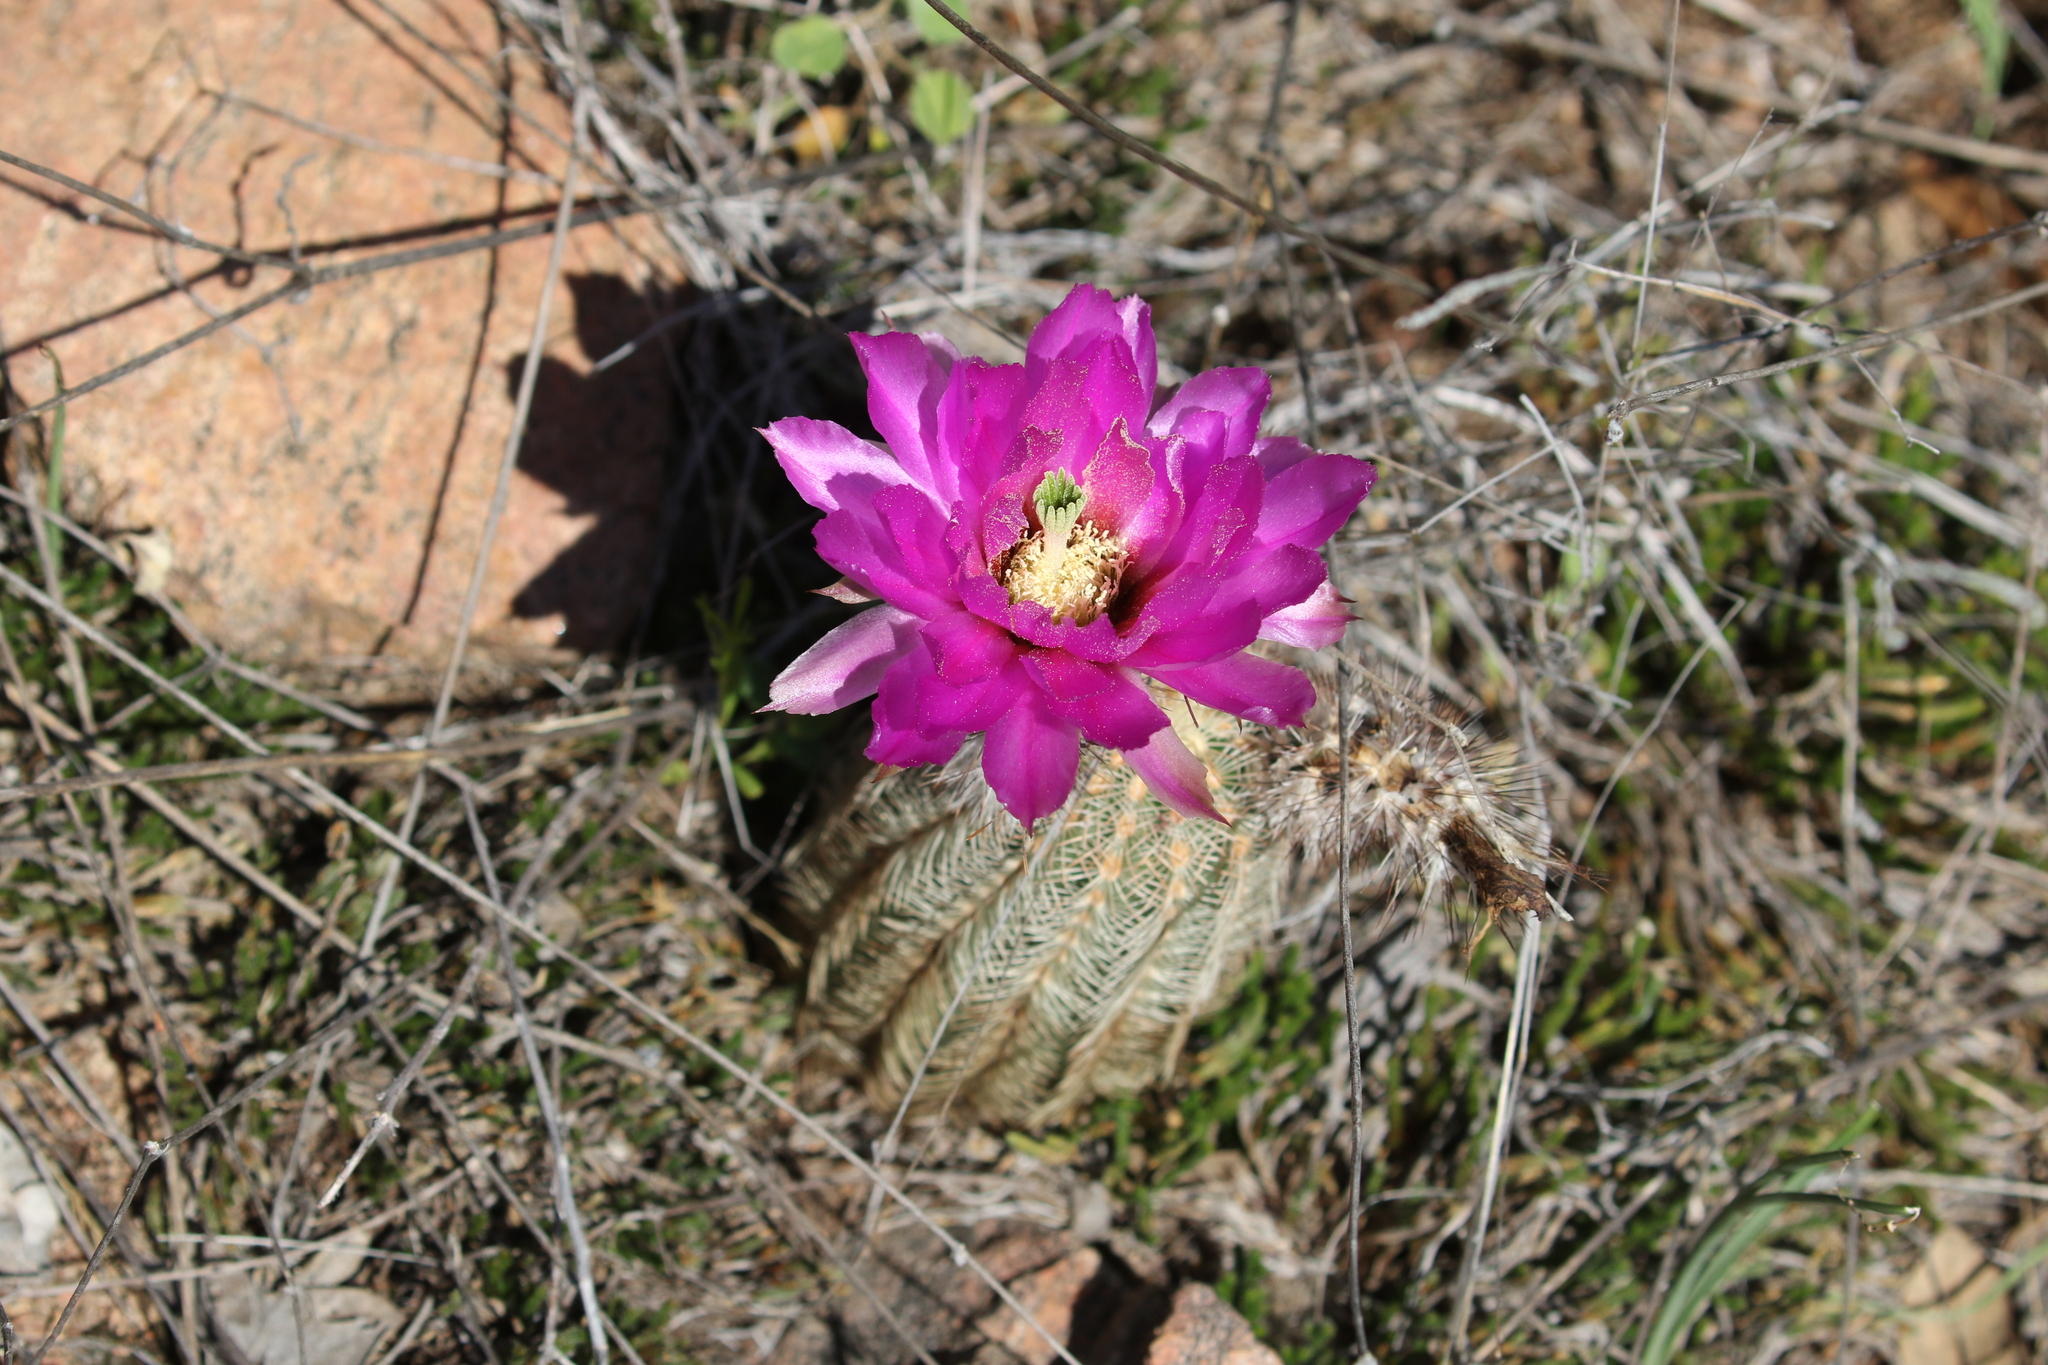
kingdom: Plantae
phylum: Tracheophyta
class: Magnoliopsida
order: Caryophyllales
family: Cactaceae
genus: Echinocereus
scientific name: Echinocereus reichenbachii
